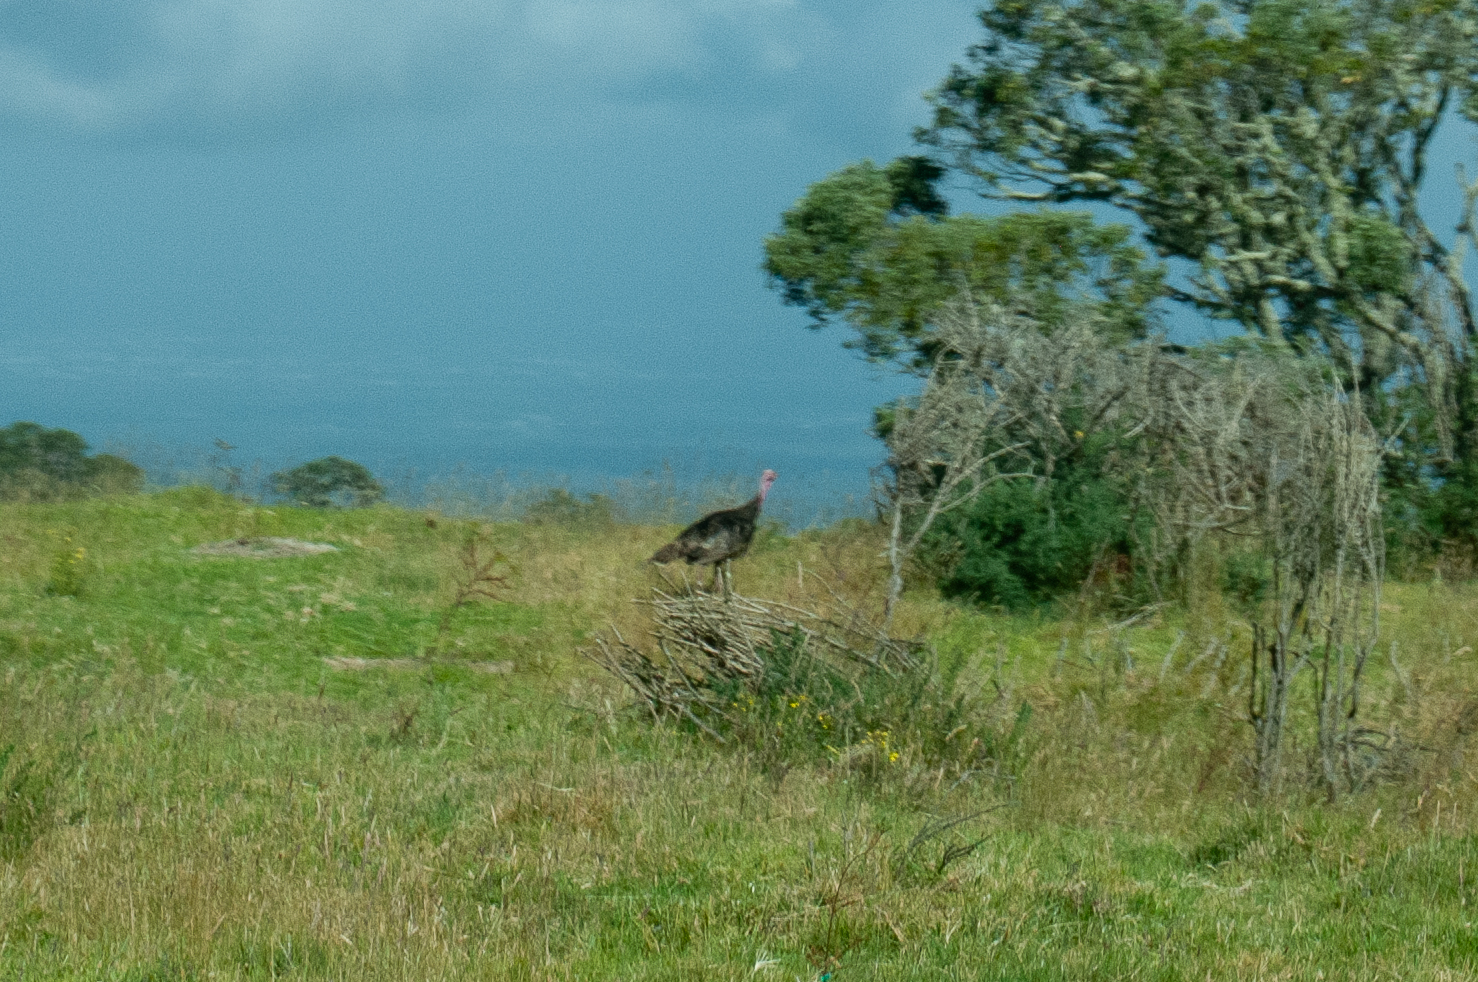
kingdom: Animalia
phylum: Chordata
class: Aves
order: Galliformes
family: Phasianidae
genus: Meleagris
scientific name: Meleagris gallopavo
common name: Wild turkey
